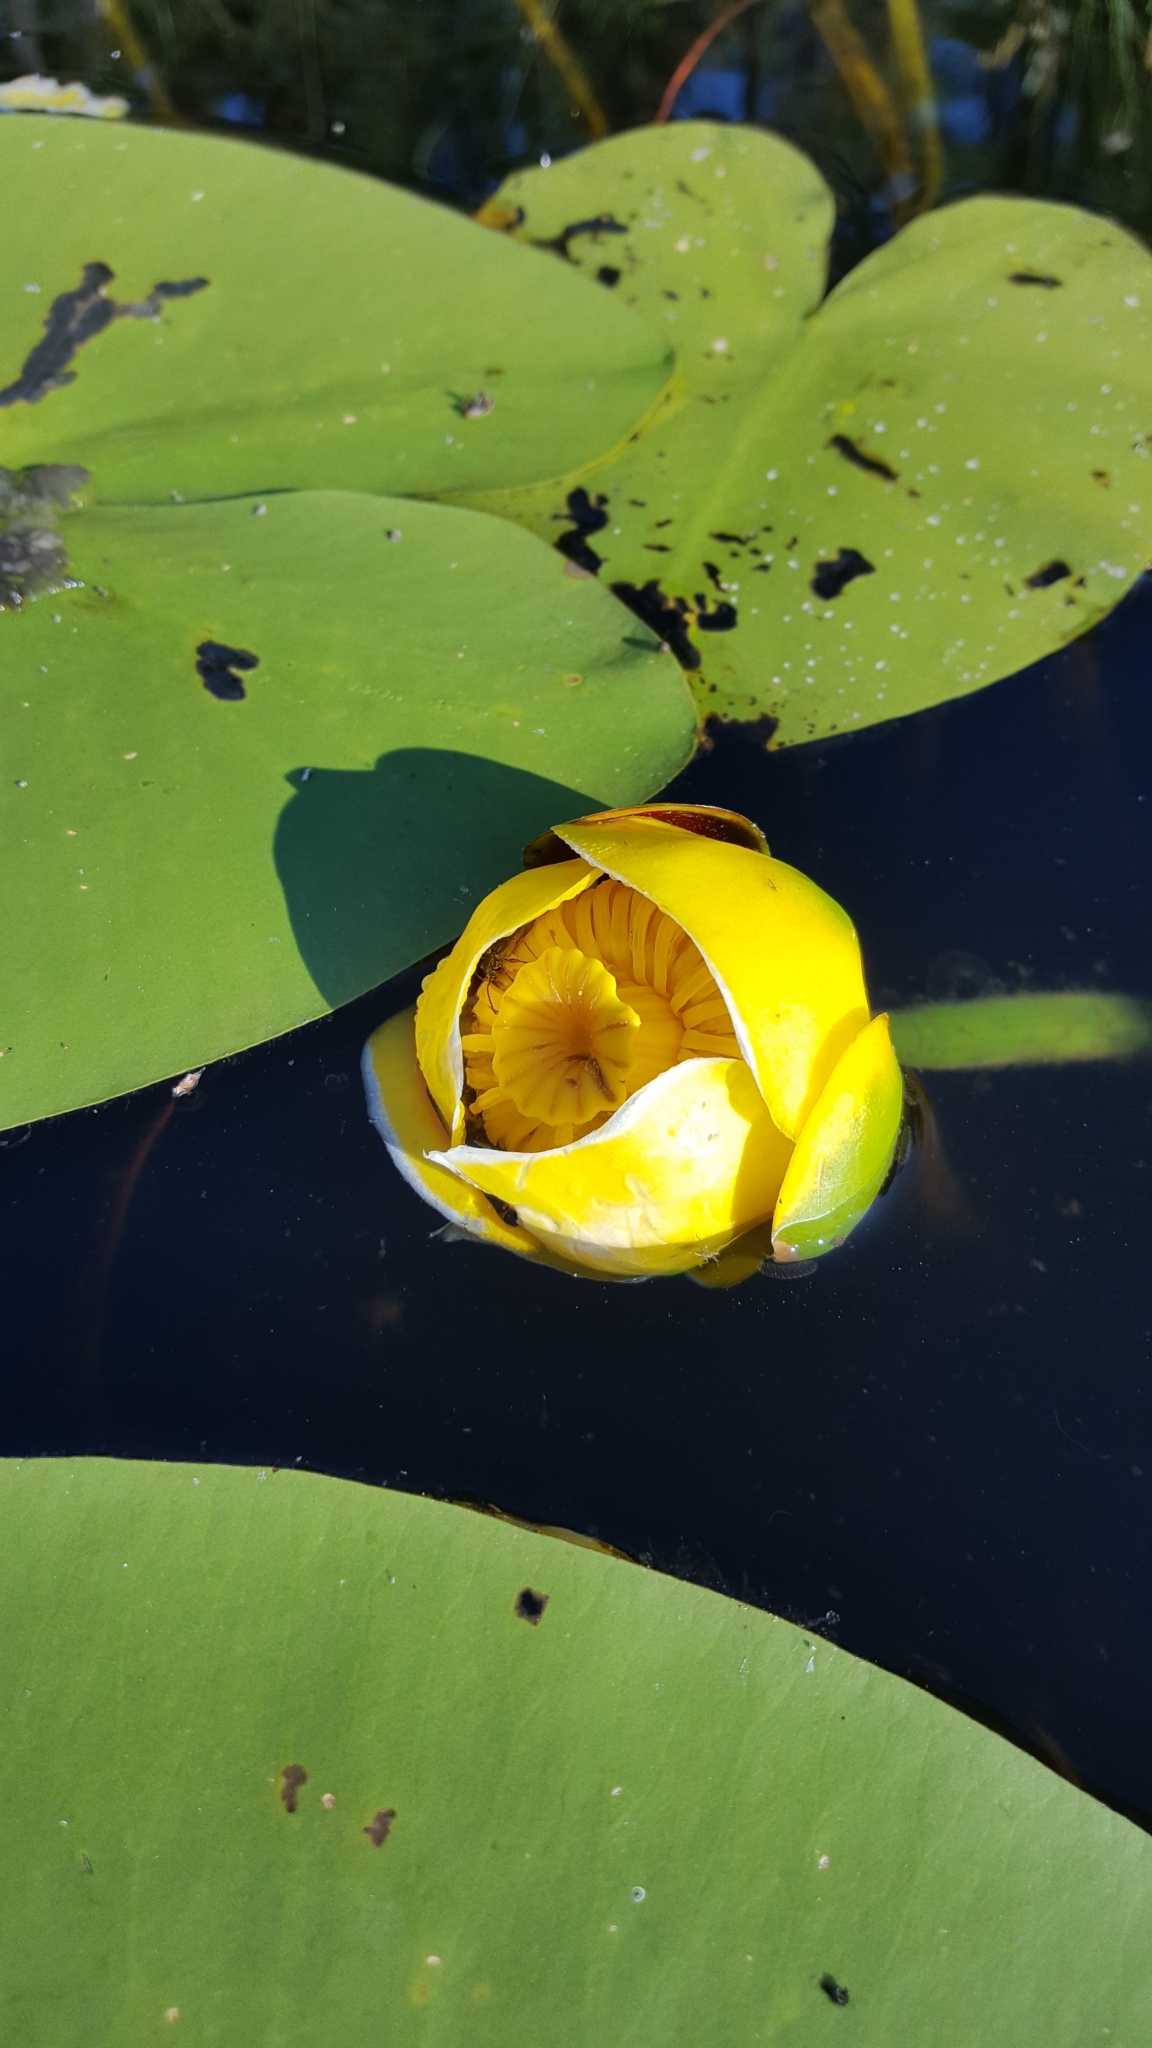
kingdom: Plantae
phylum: Tracheophyta
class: Magnoliopsida
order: Nymphaeales
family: Nymphaeaceae
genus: Nuphar
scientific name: Nuphar variegata
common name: Beaver-root
